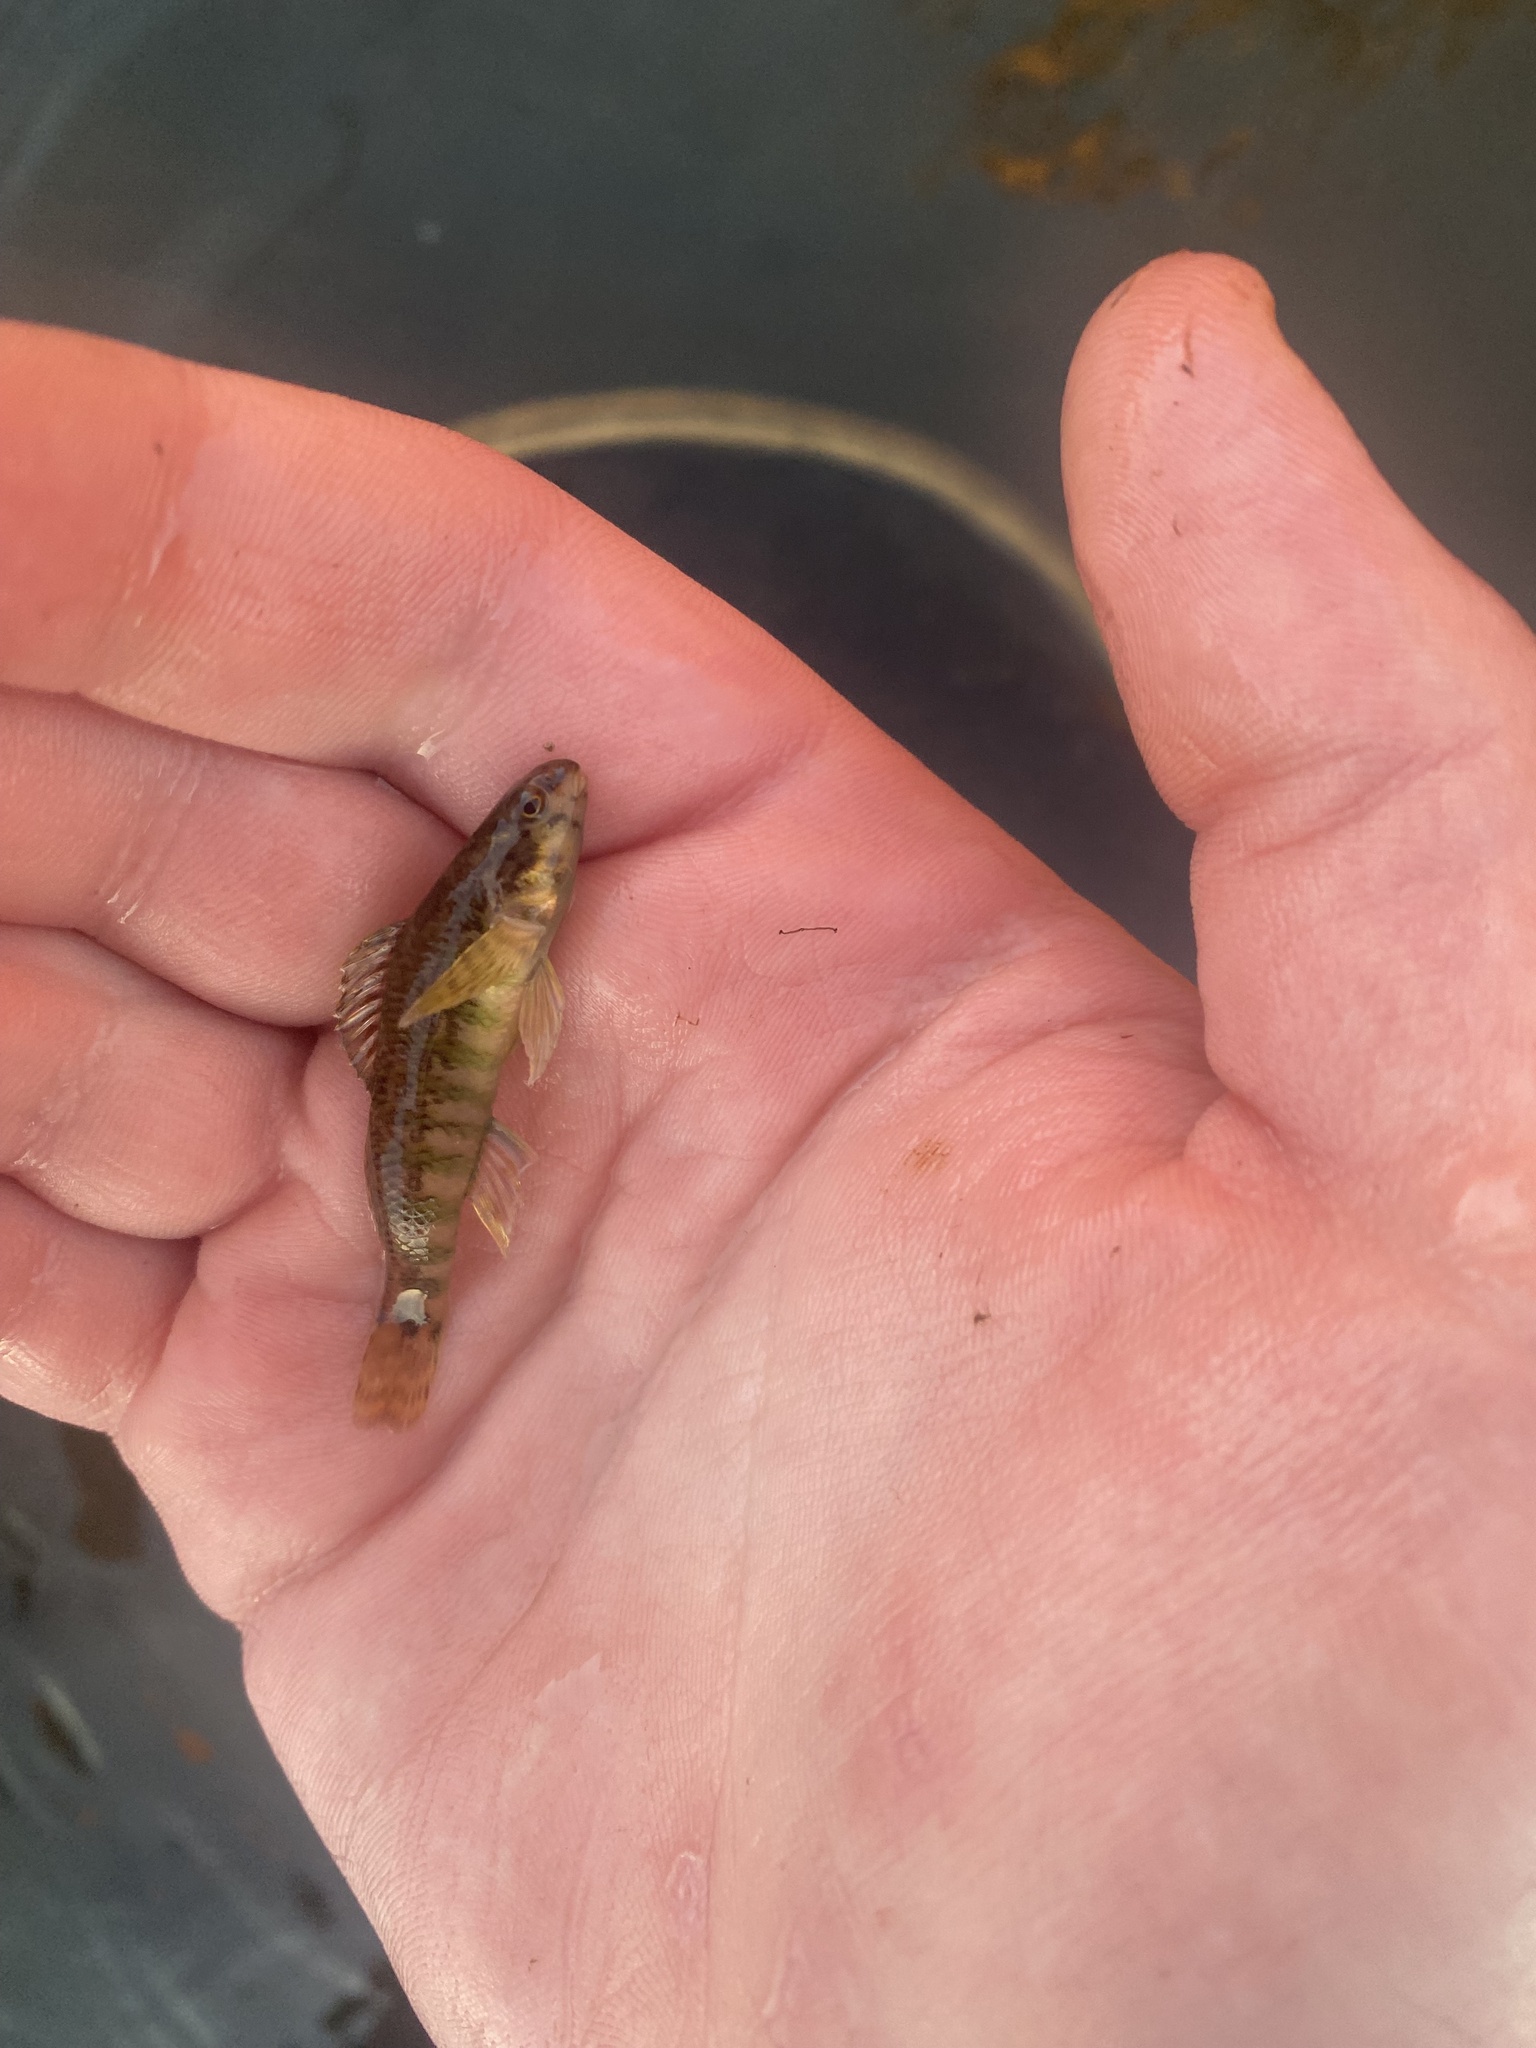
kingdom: Animalia
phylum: Chordata
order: Perciformes
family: Percidae
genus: Etheostoma
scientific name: Etheostoma zonale
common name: Banded darter
